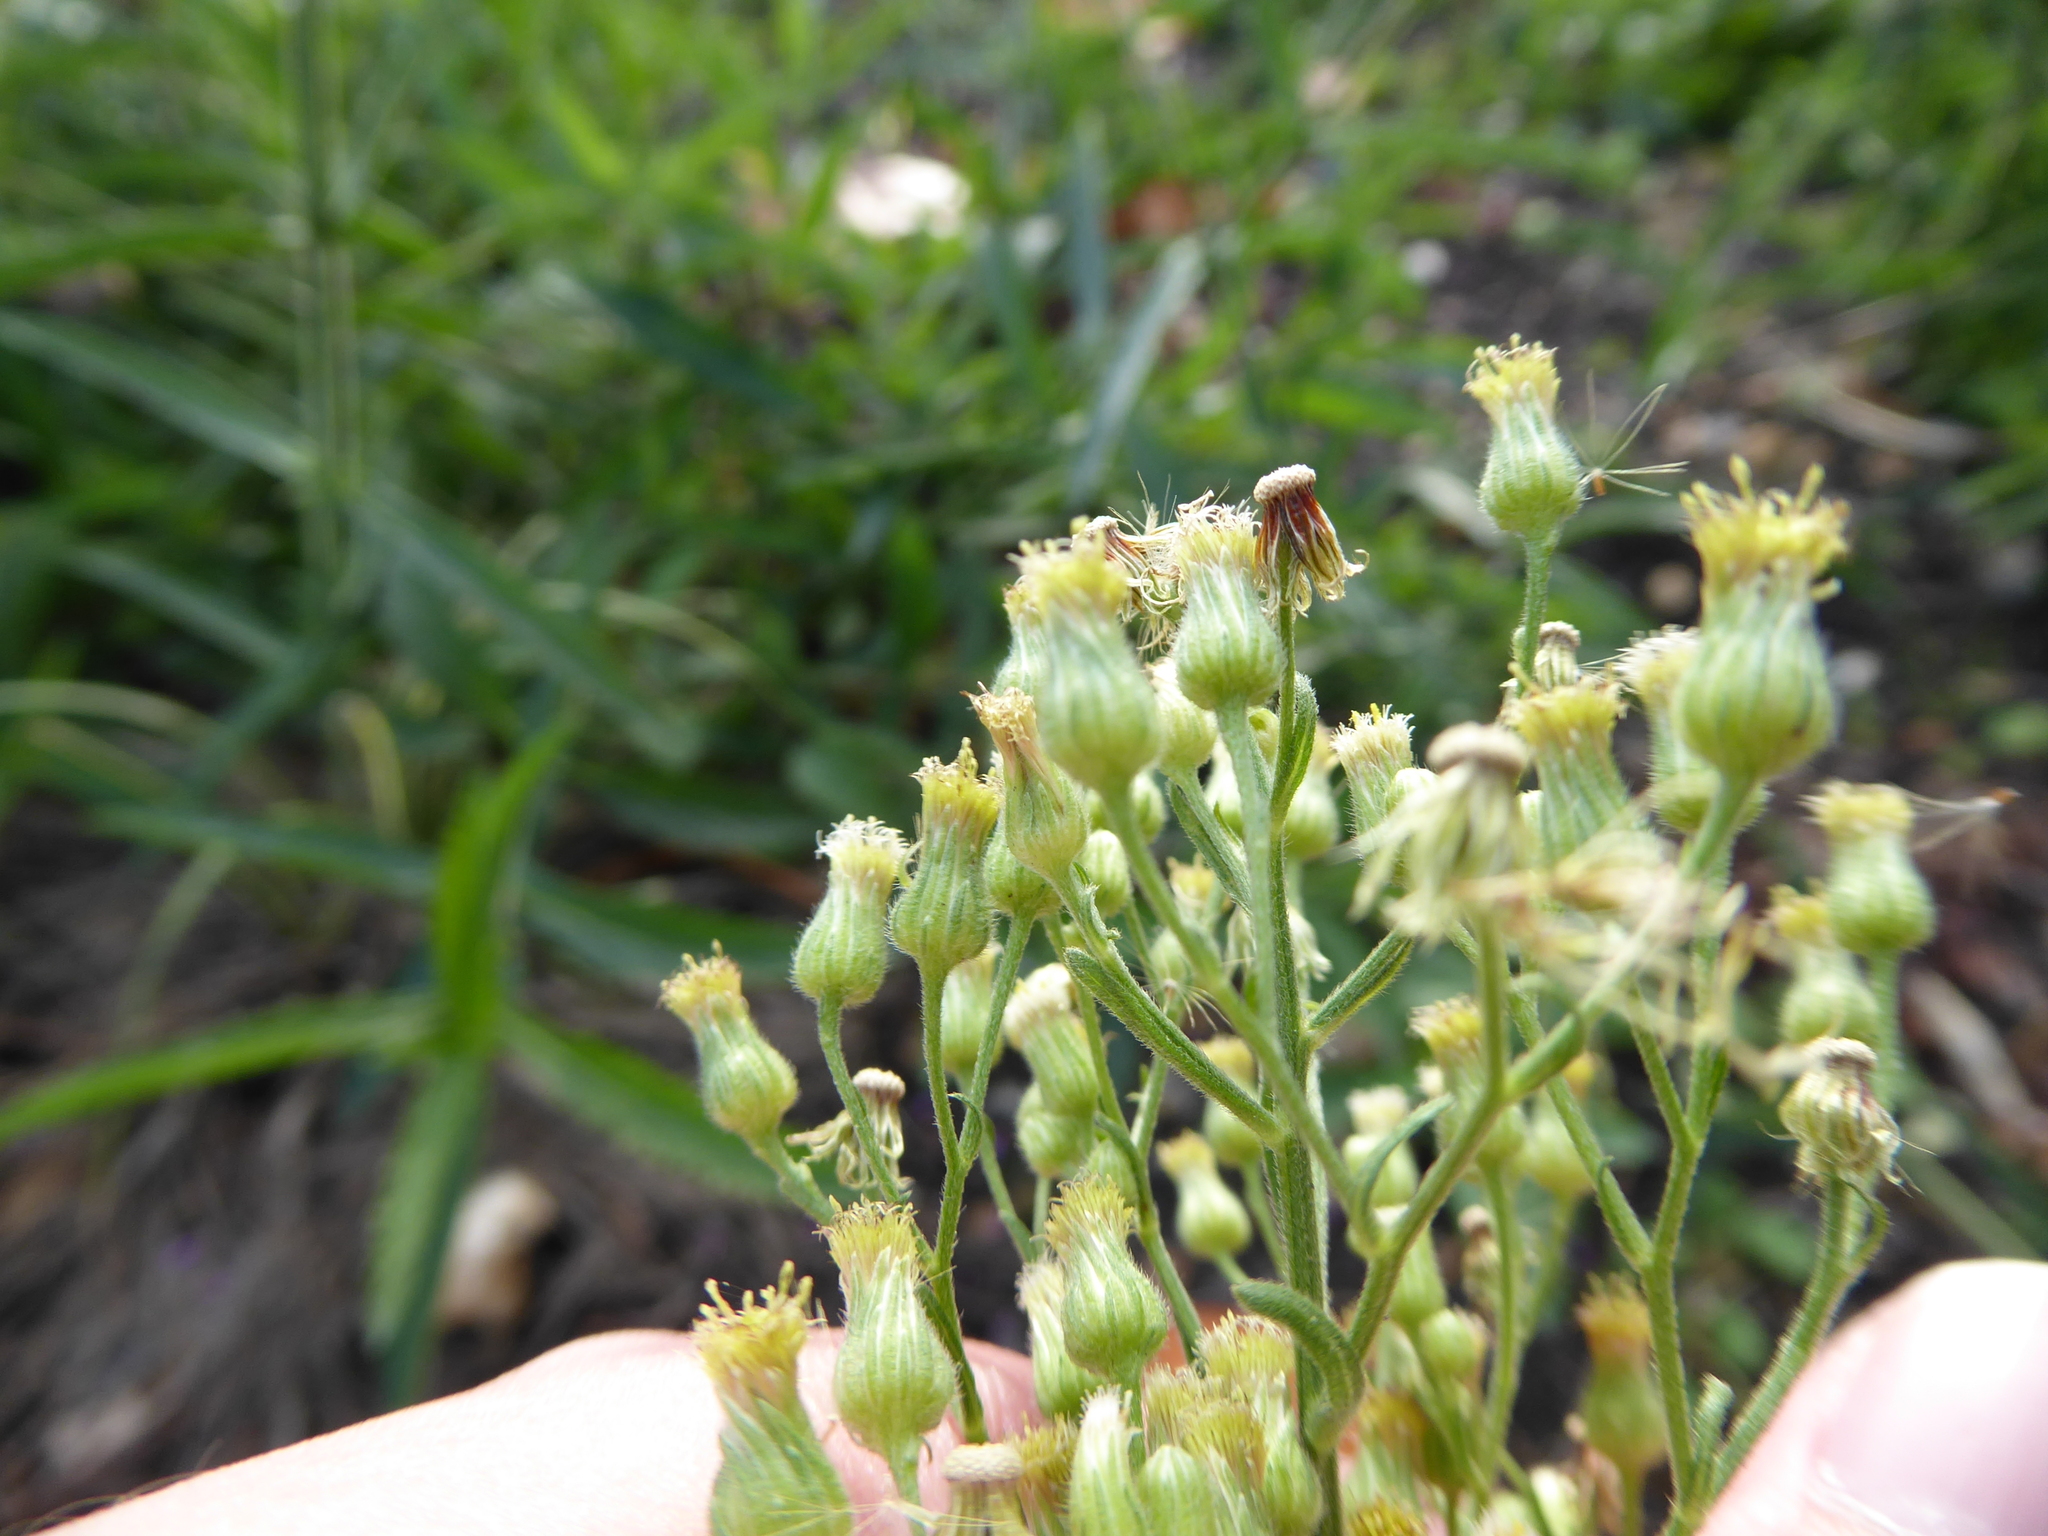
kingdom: Plantae
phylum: Tracheophyta
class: Magnoliopsida
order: Asterales
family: Asteraceae
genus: Erigeron
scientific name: Erigeron sumatrensis
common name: Daisy
